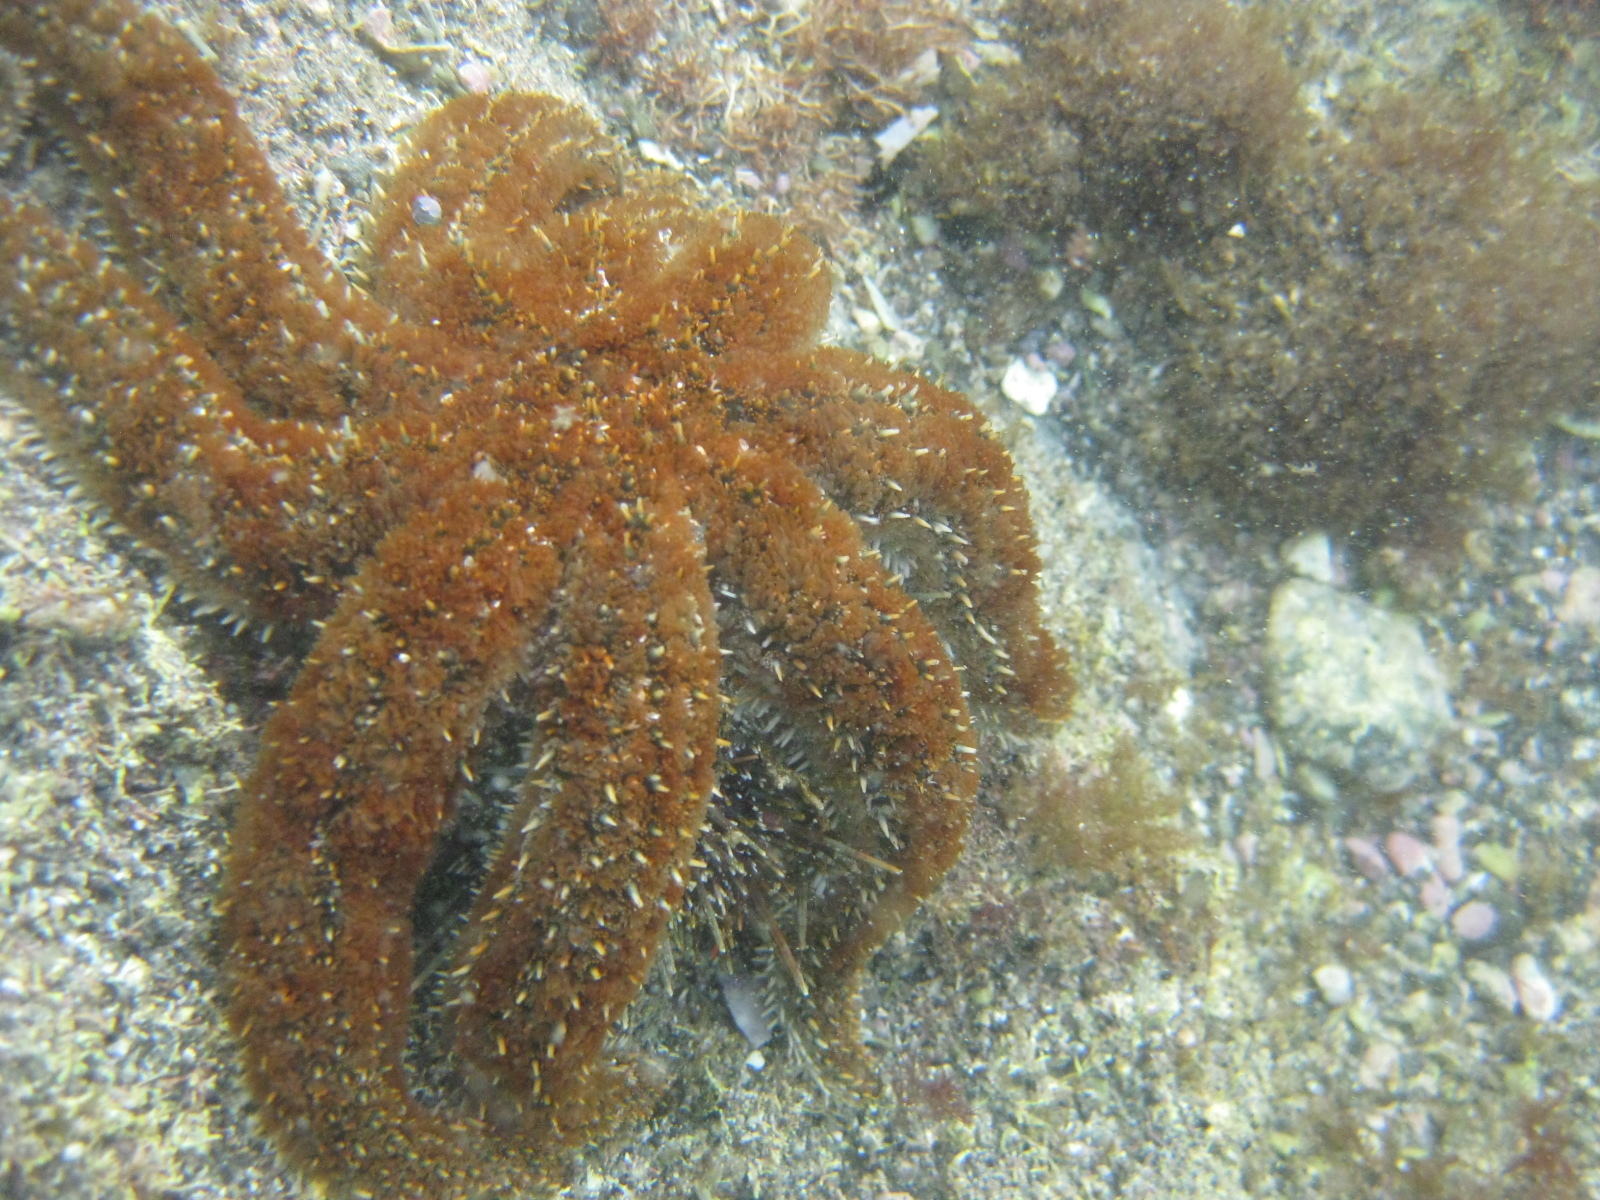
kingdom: Animalia
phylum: Echinodermata
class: Echinoidea
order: Camarodonta
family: Echinometridae
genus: Evechinus
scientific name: Evechinus chloroticus
